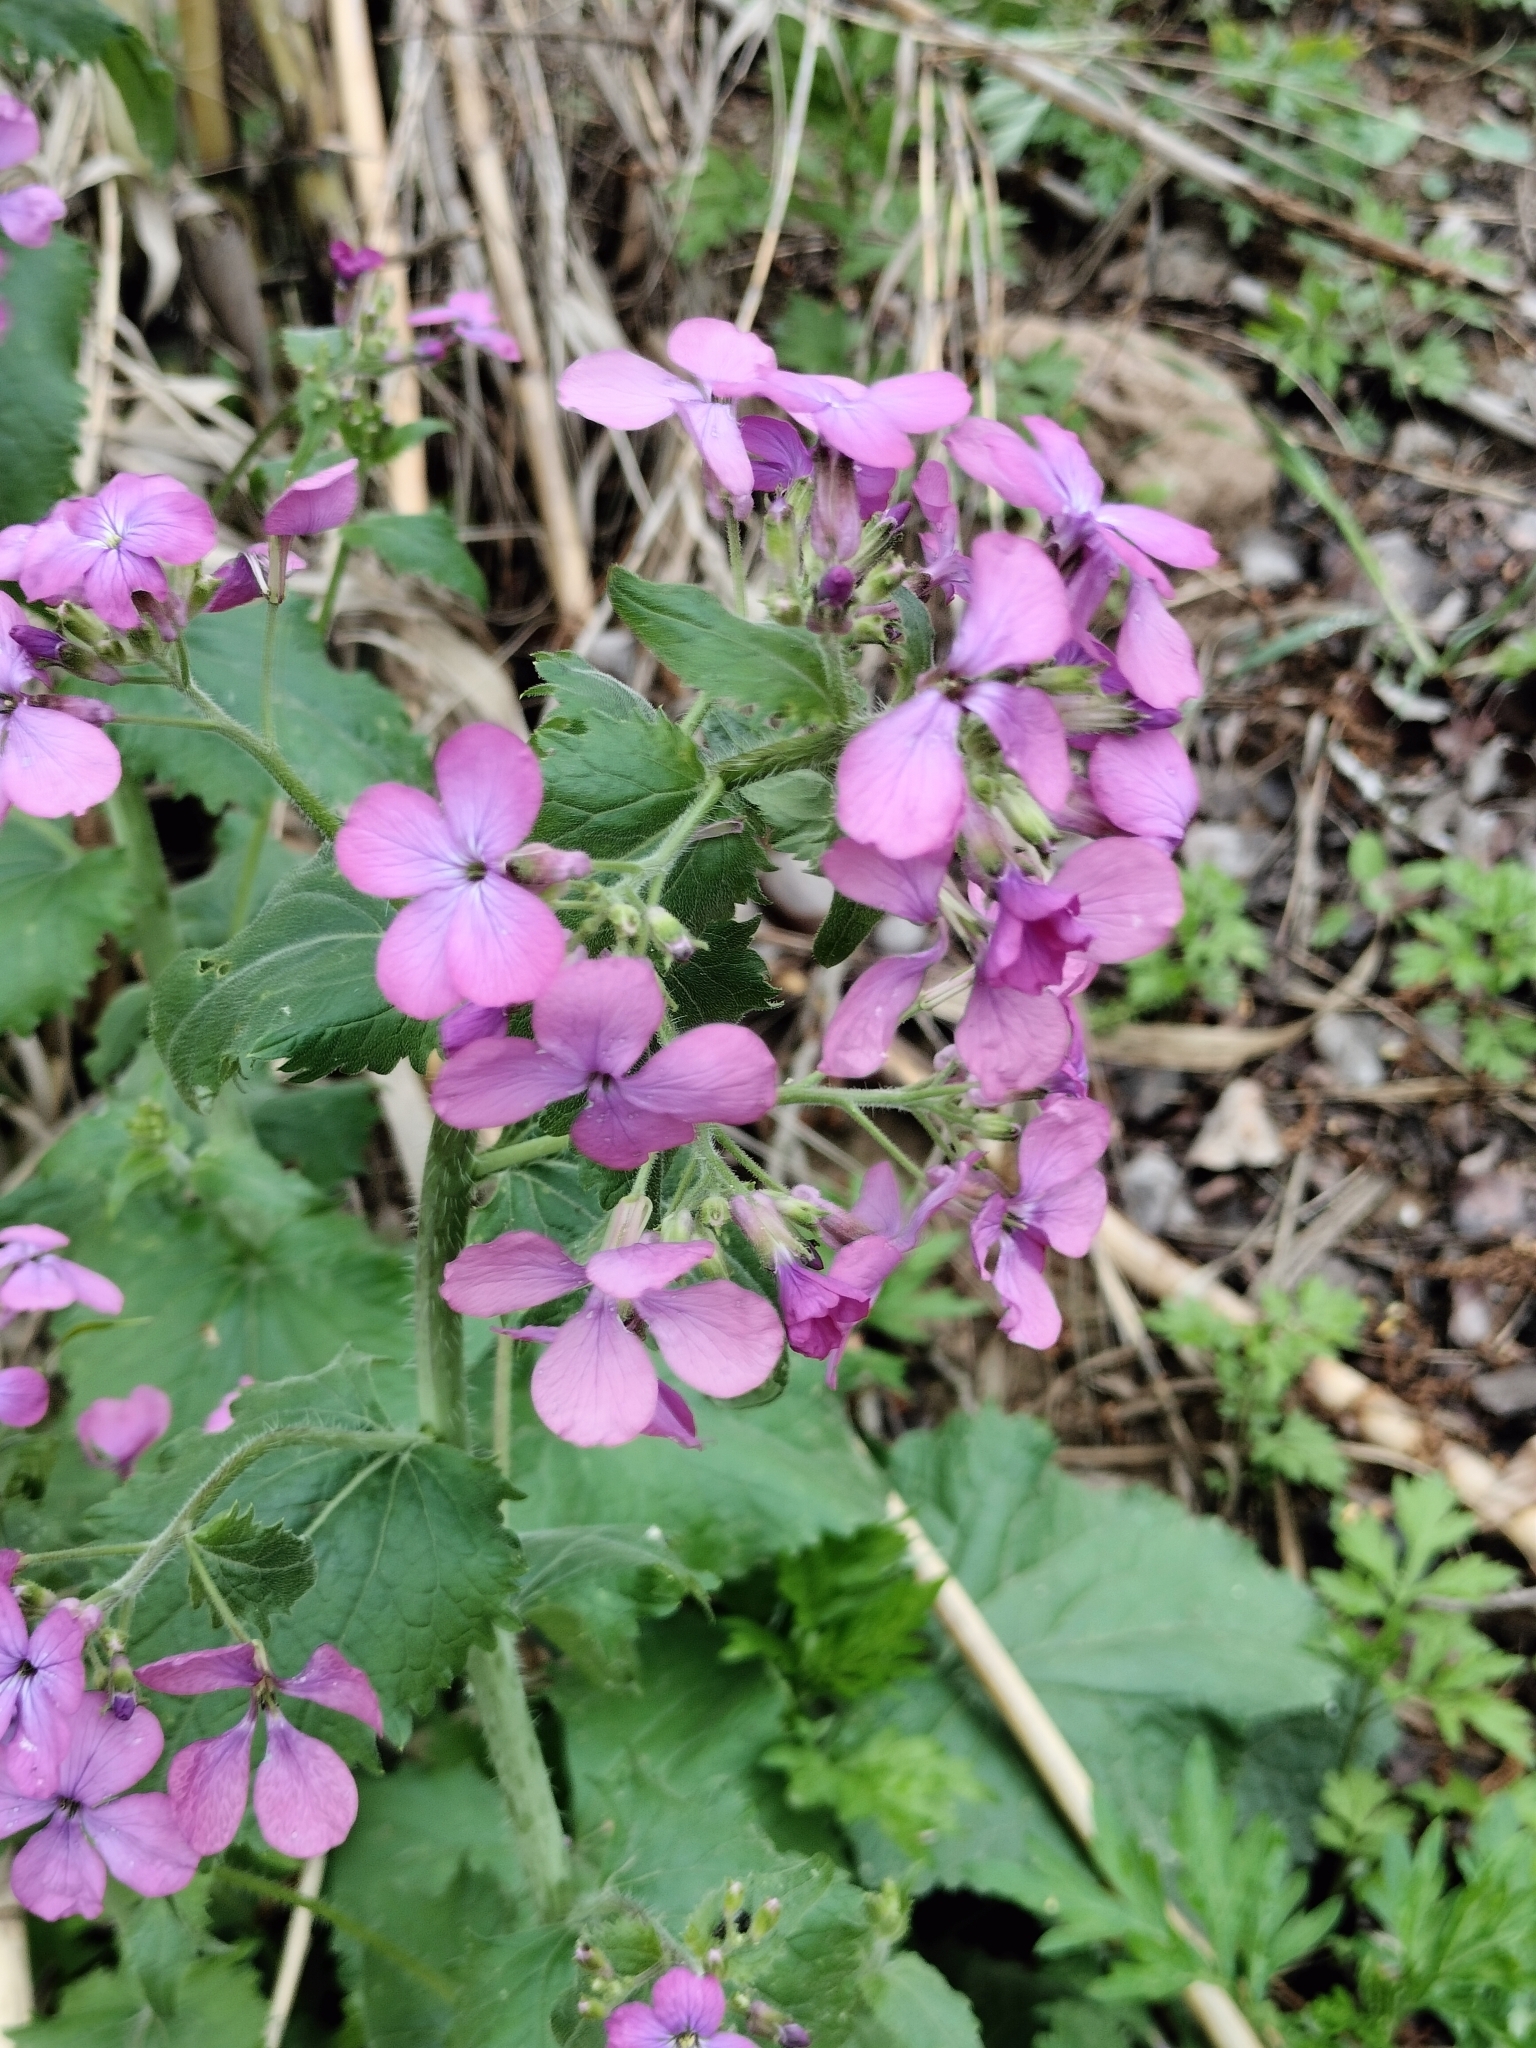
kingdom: Plantae
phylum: Tracheophyta
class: Magnoliopsida
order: Brassicales
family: Brassicaceae
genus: Lunaria
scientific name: Lunaria annua
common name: Honesty
